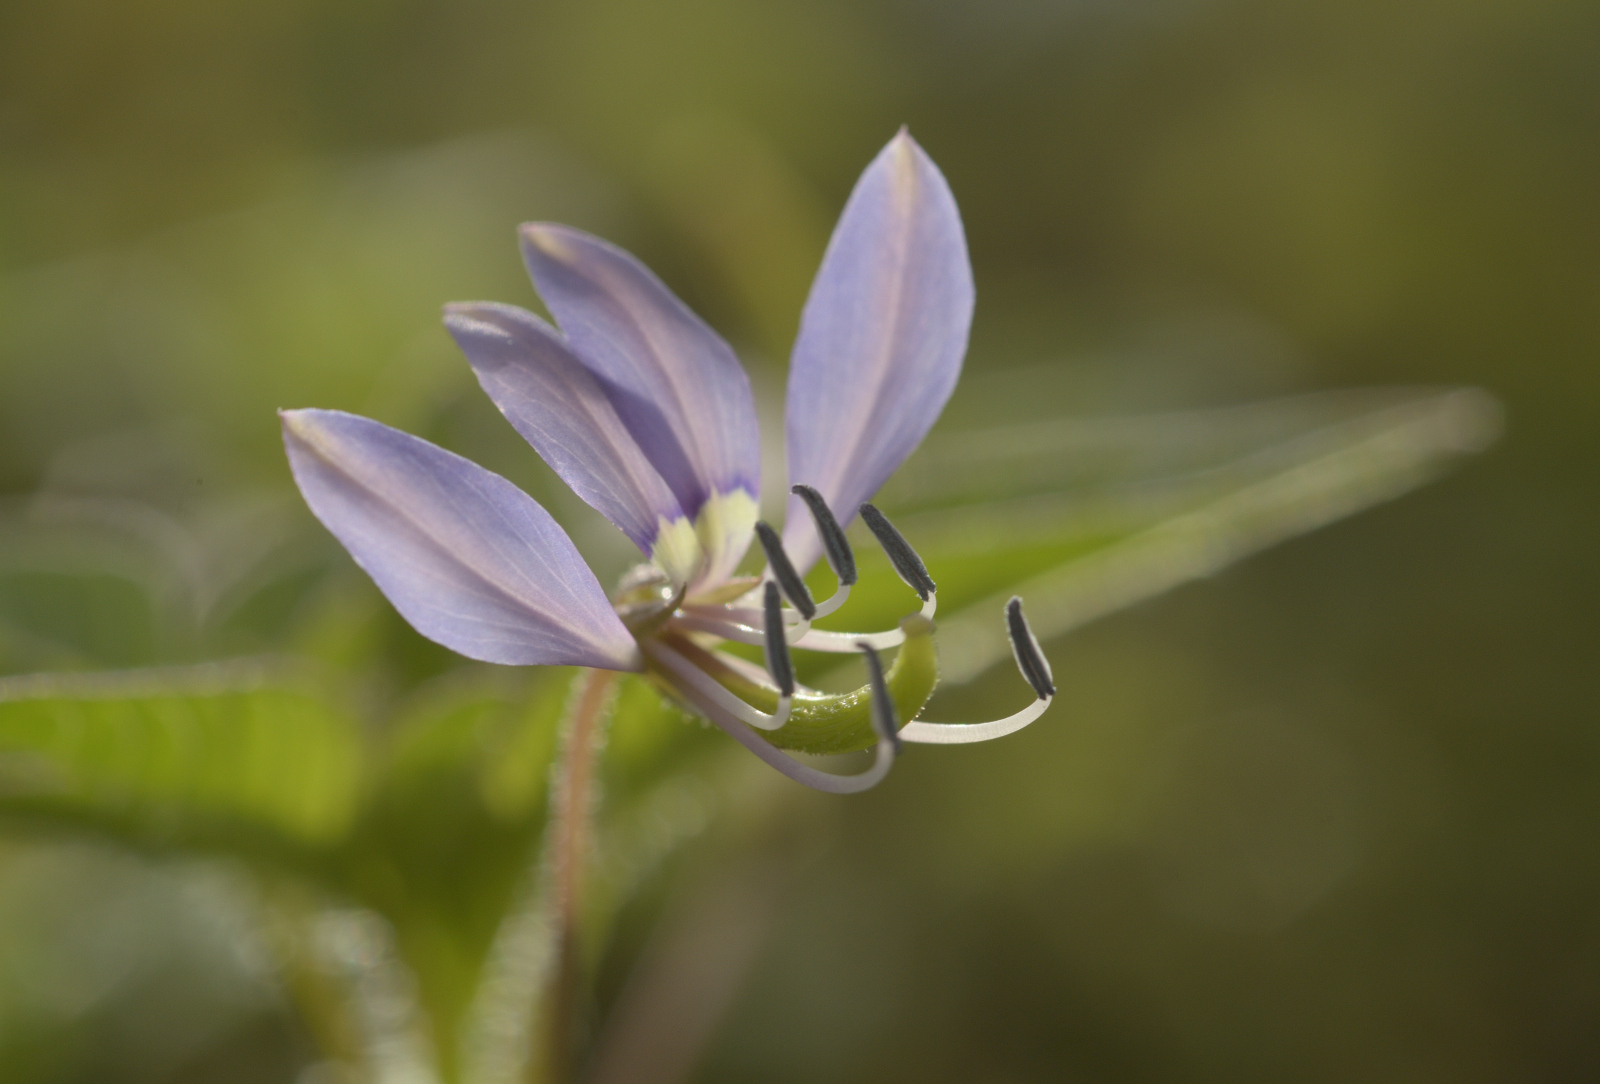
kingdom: Plantae
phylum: Tracheophyta
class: Magnoliopsida
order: Brassicales
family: Cleomaceae
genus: Sieruela
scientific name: Sieruela rutidosperma
